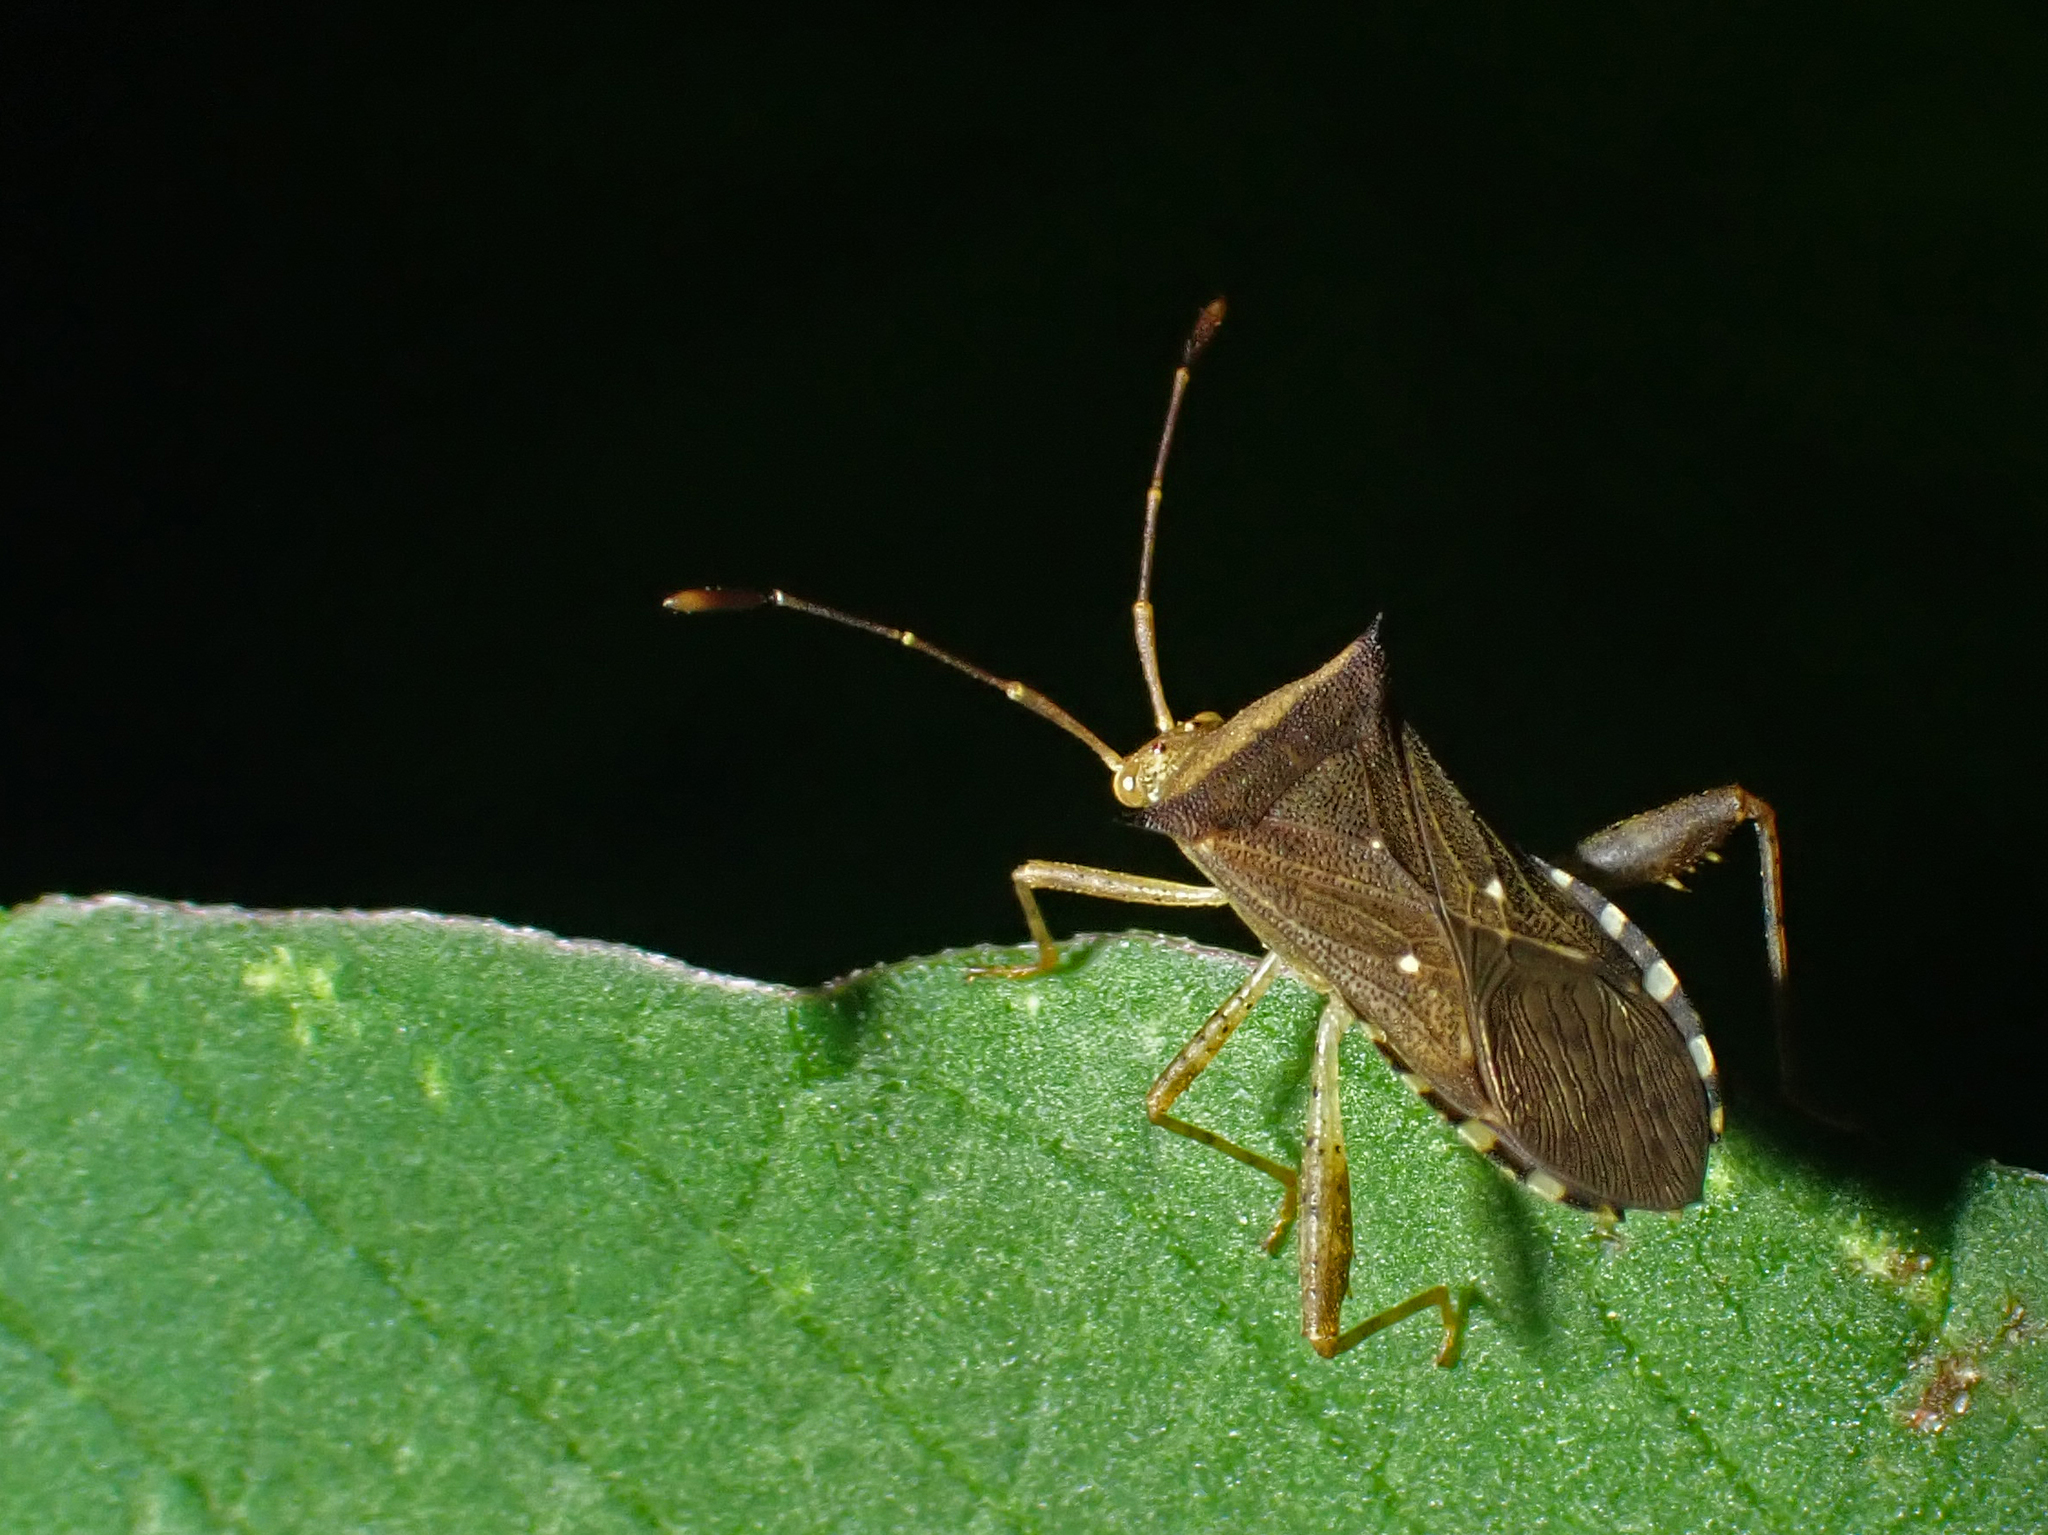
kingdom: Animalia
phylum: Arthropoda
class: Insecta
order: Hemiptera
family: Coreidae
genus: Zicca
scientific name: Zicca taeniola
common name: Leaf-footed bug
